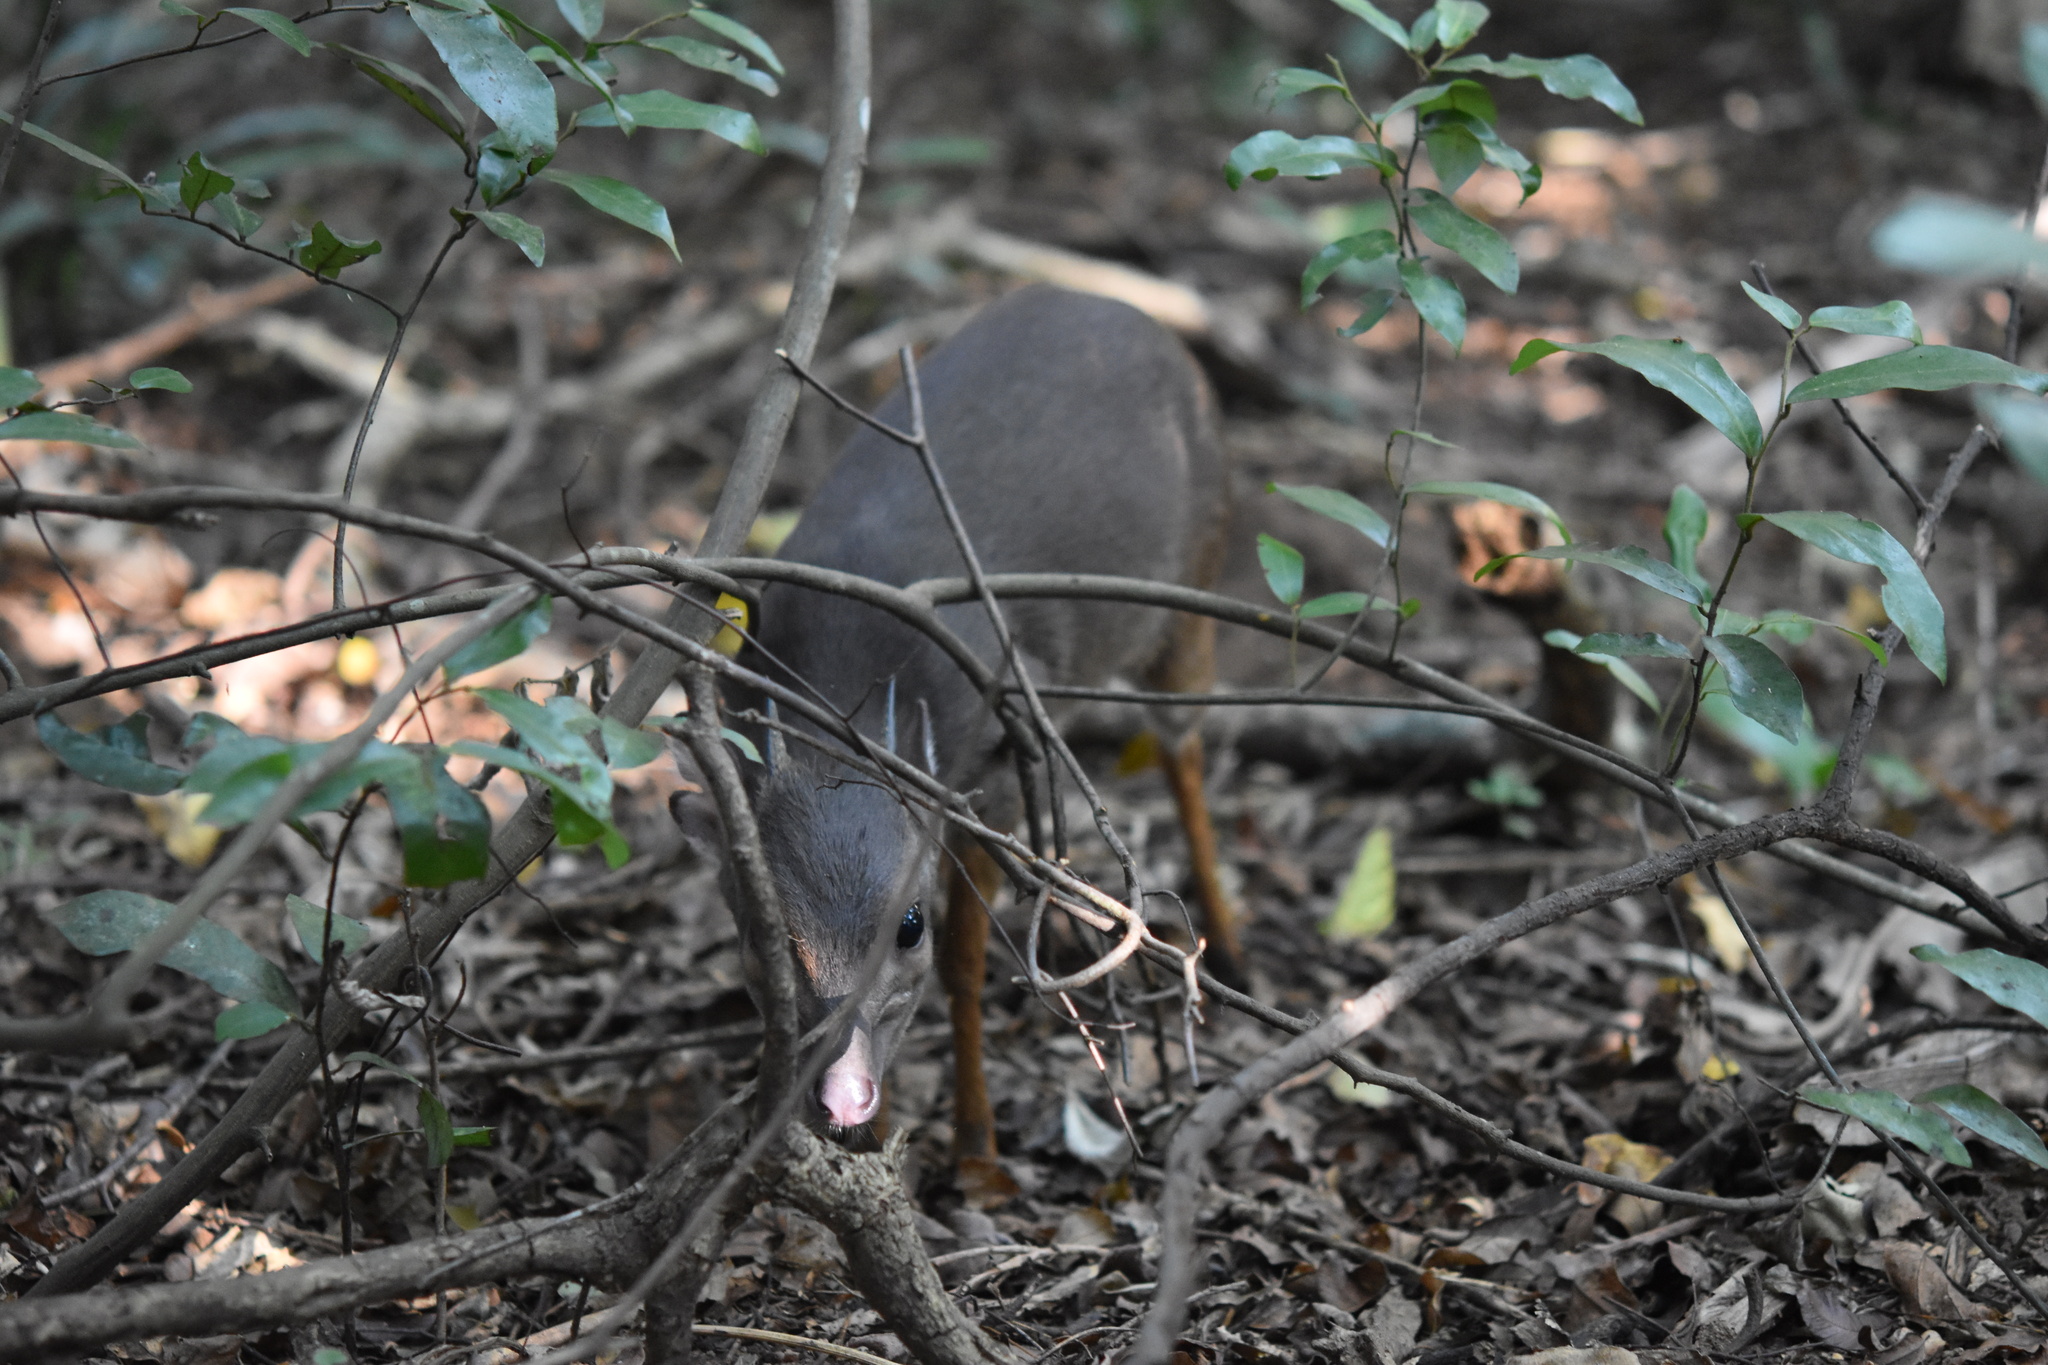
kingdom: Animalia
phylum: Chordata
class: Mammalia
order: Artiodactyla
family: Bovidae
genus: Philantomba
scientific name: Philantomba monticola
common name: Blue duiker
